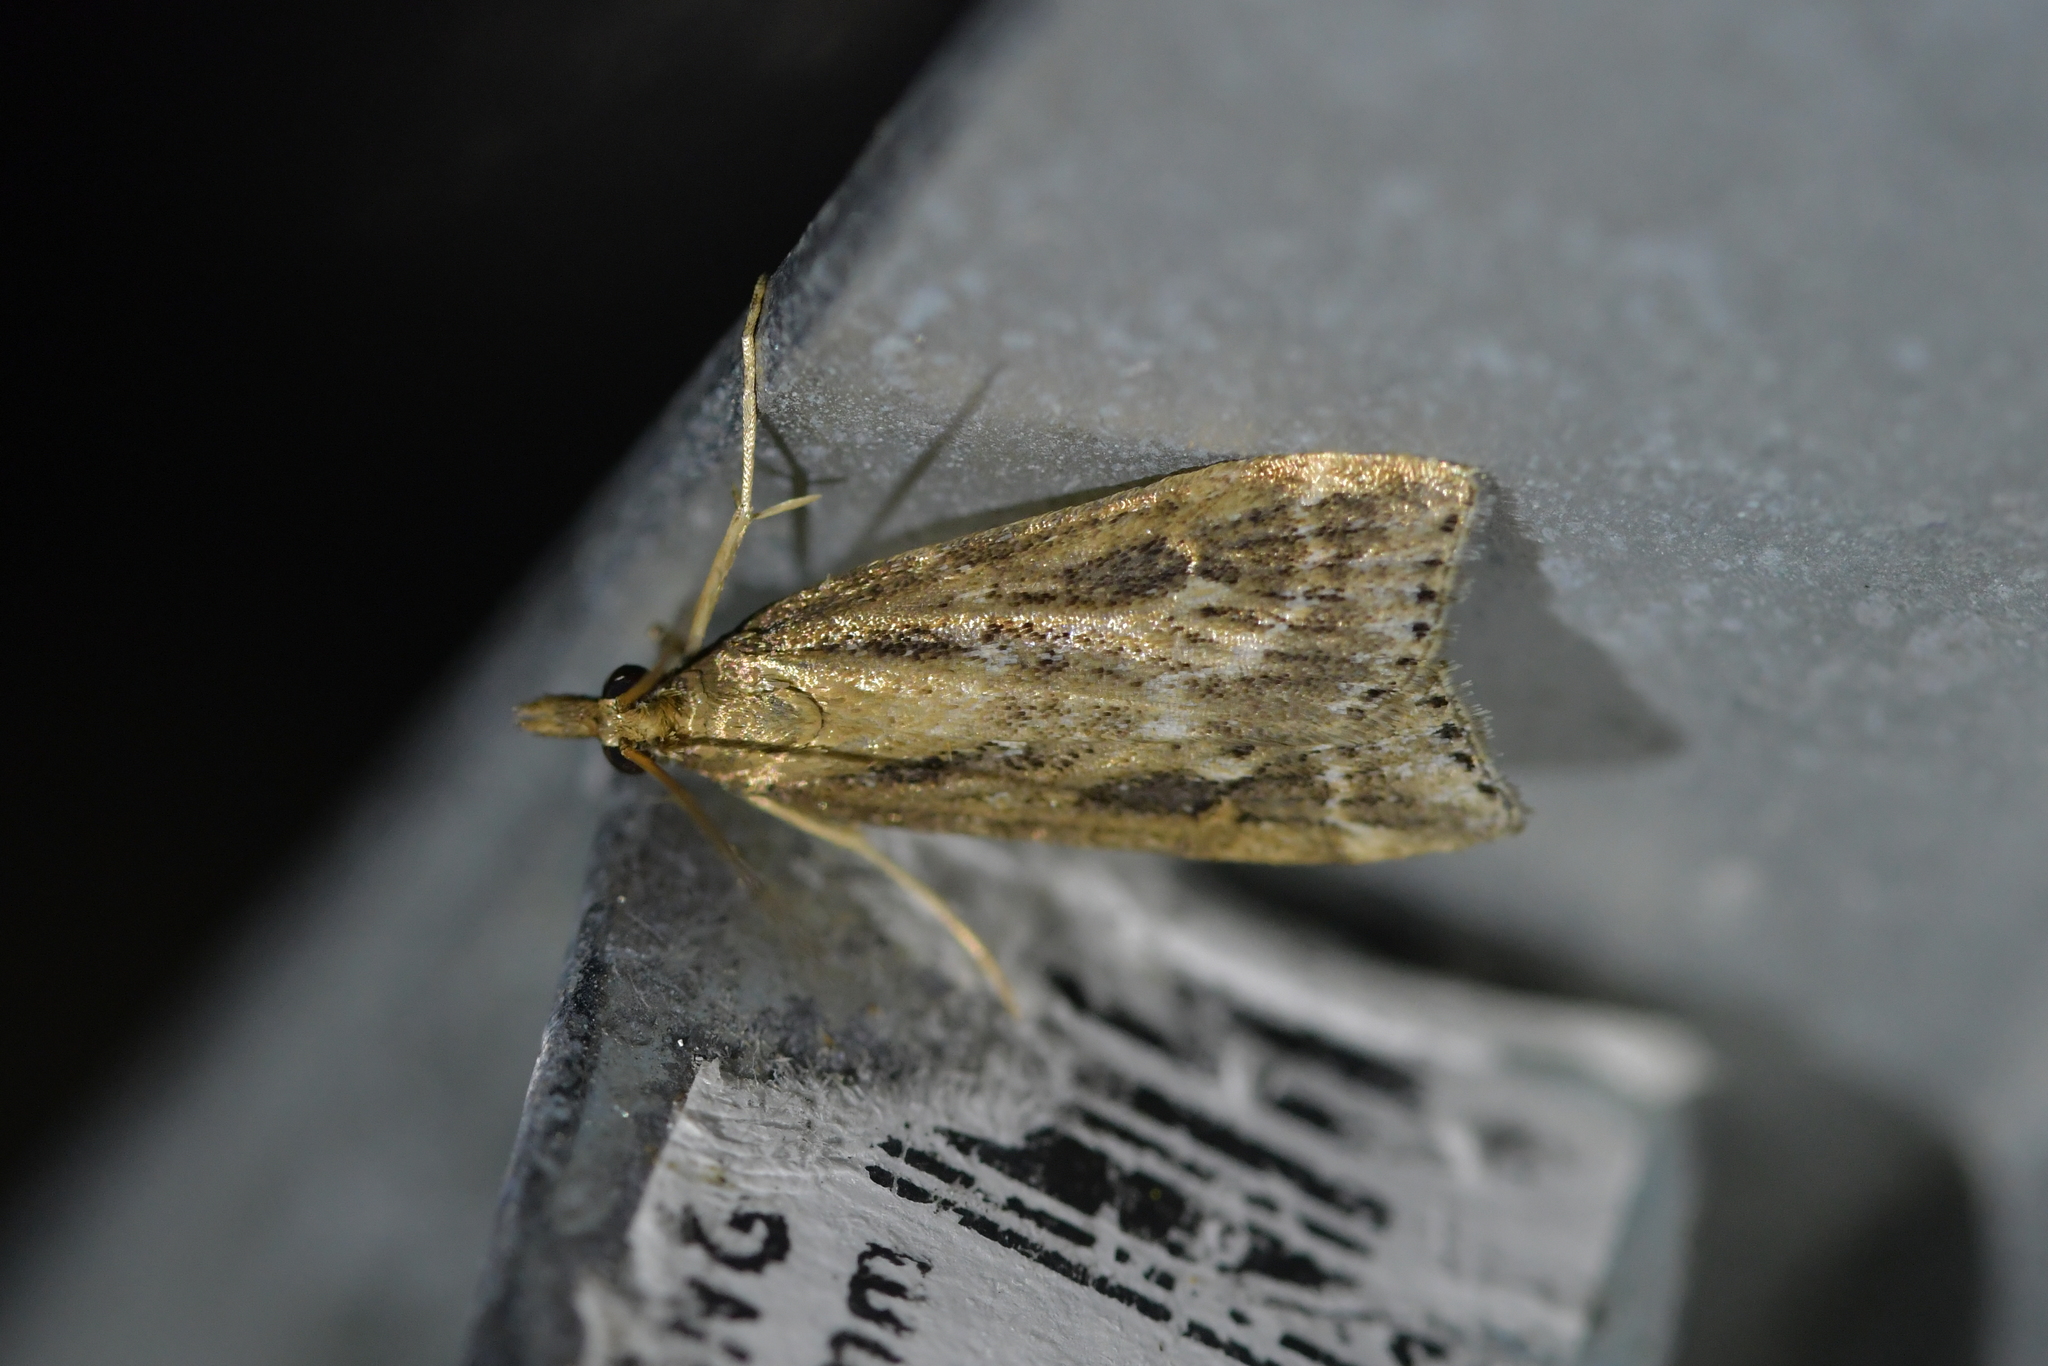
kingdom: Animalia
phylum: Arthropoda
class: Insecta
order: Lepidoptera
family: Crambidae
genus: Eudonia
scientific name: Eudonia octophora
